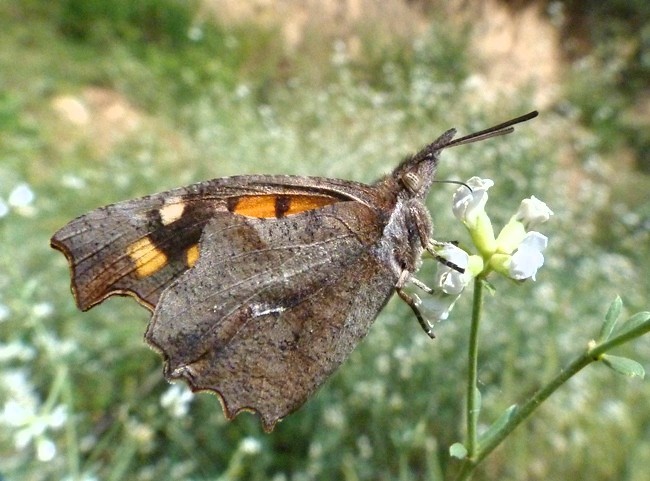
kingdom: Animalia
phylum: Arthropoda
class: Insecta
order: Lepidoptera
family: Nymphalidae
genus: Libythea
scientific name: Libythea celtis
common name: Nettle-tree butterfly
